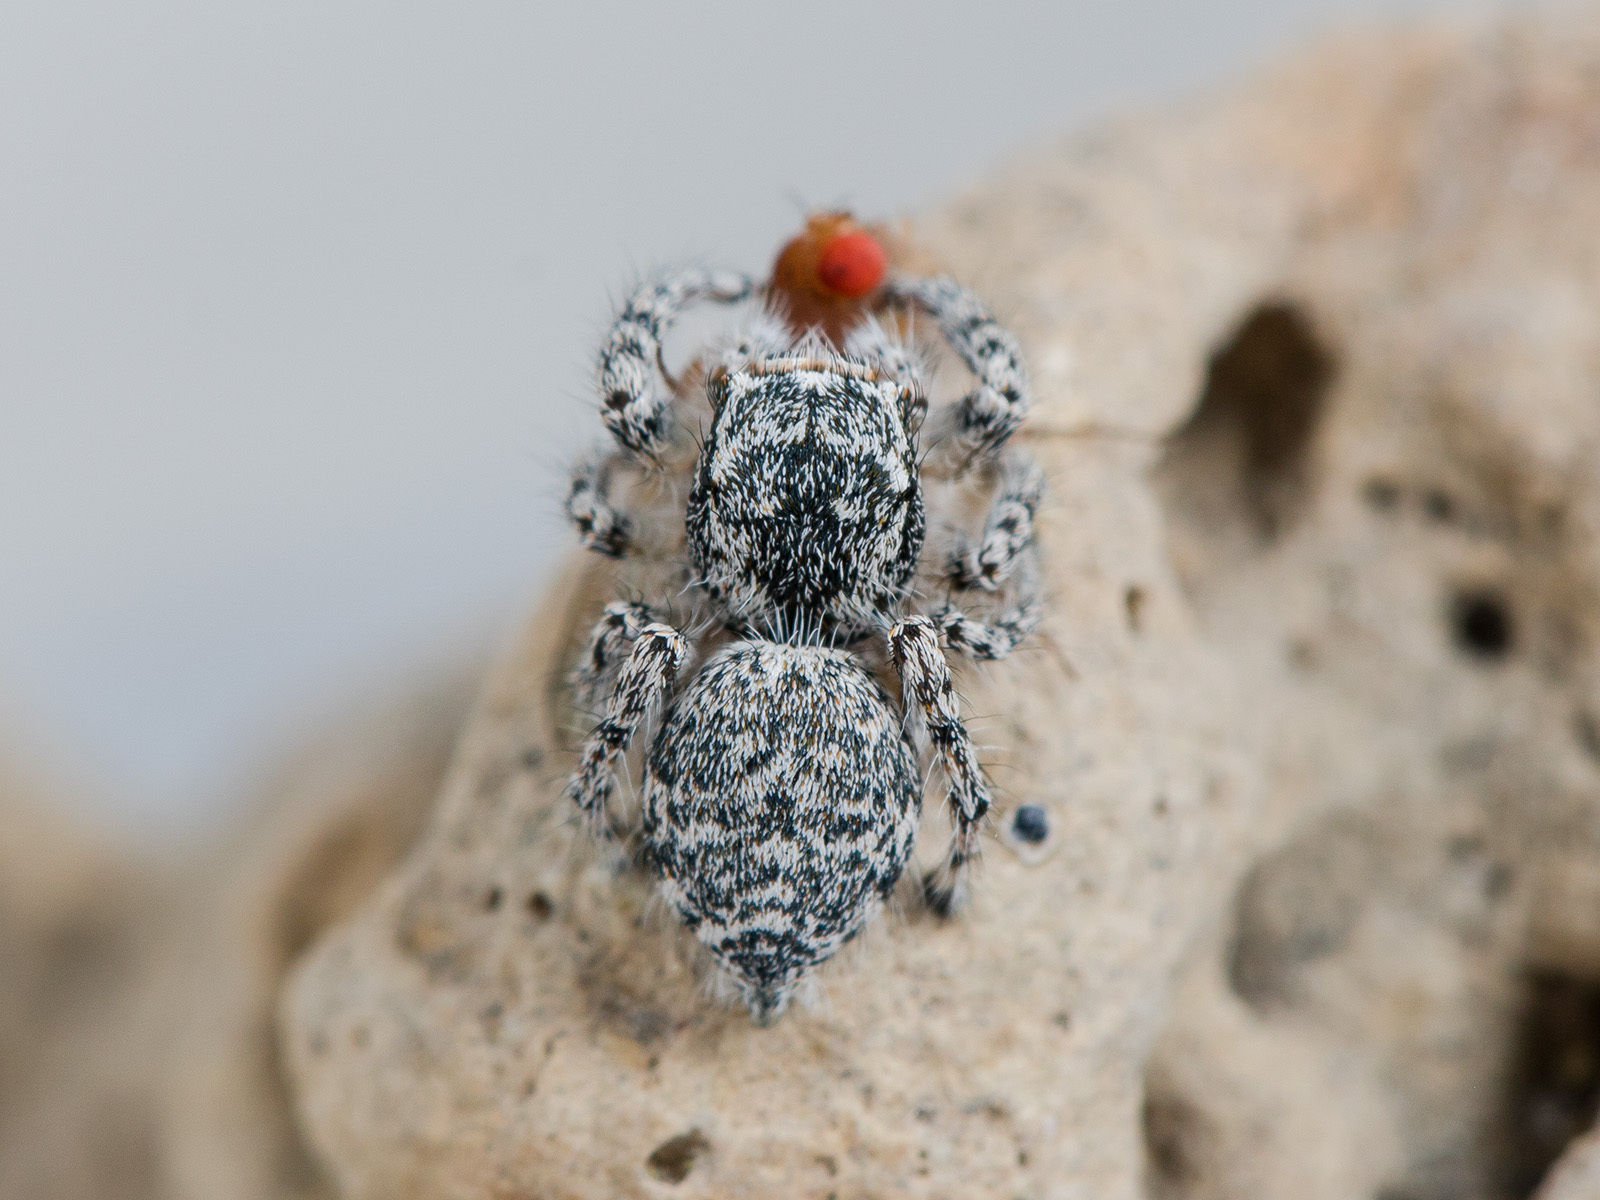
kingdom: Animalia
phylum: Arthropoda
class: Arachnida
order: Araneae
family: Salticidae
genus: Pseudomogrus
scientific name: Pseudomogrus mirabilis
